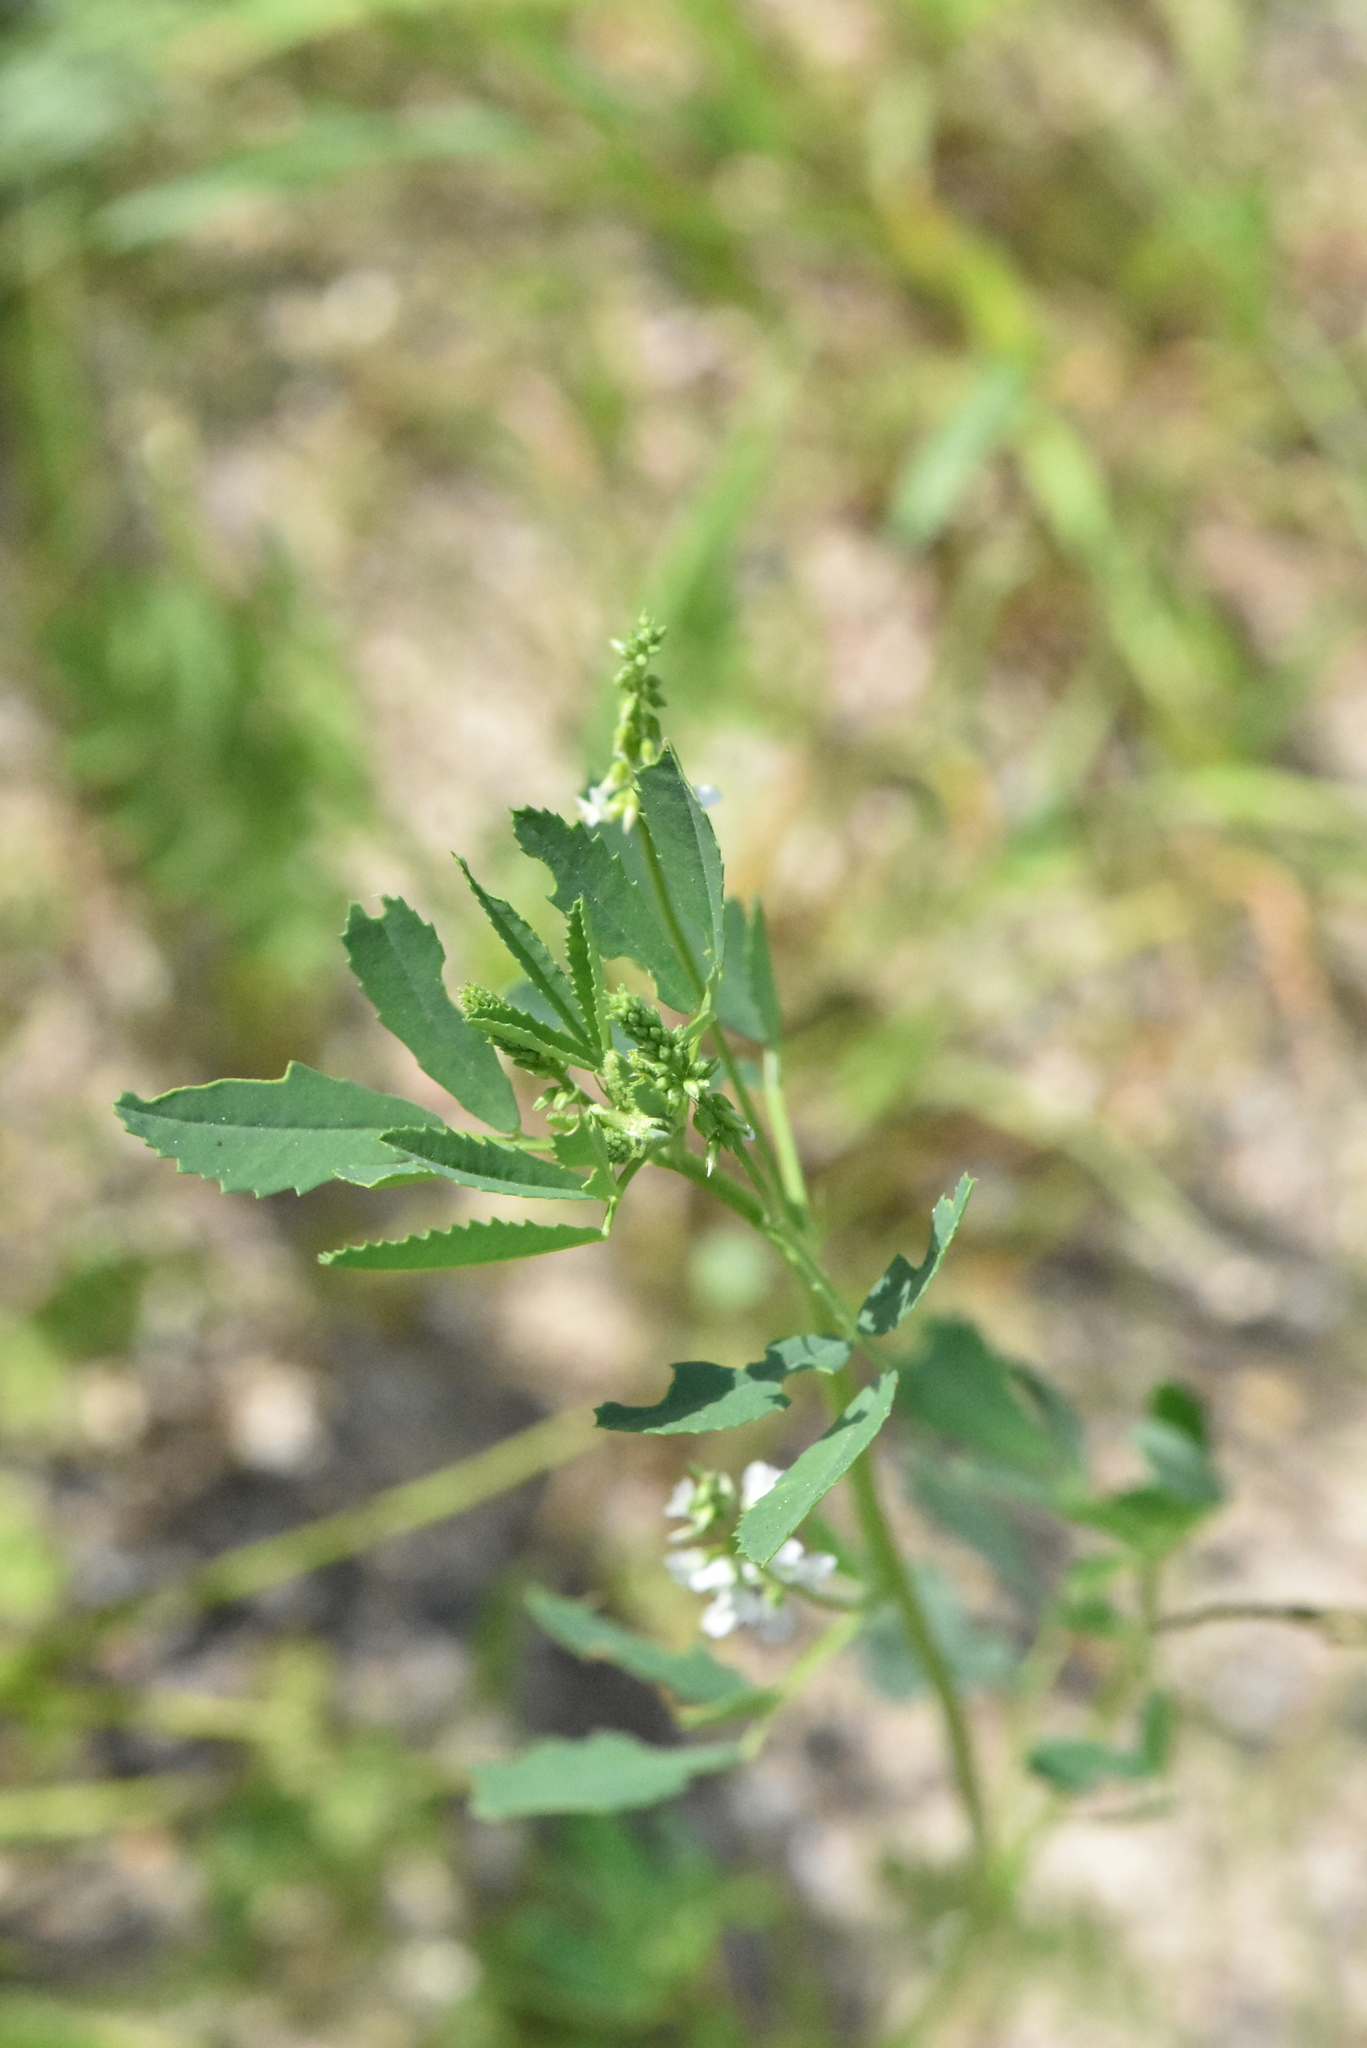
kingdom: Plantae
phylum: Tracheophyta
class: Magnoliopsida
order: Fabales
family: Fabaceae
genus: Melilotus
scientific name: Melilotus albus
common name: White melilot
